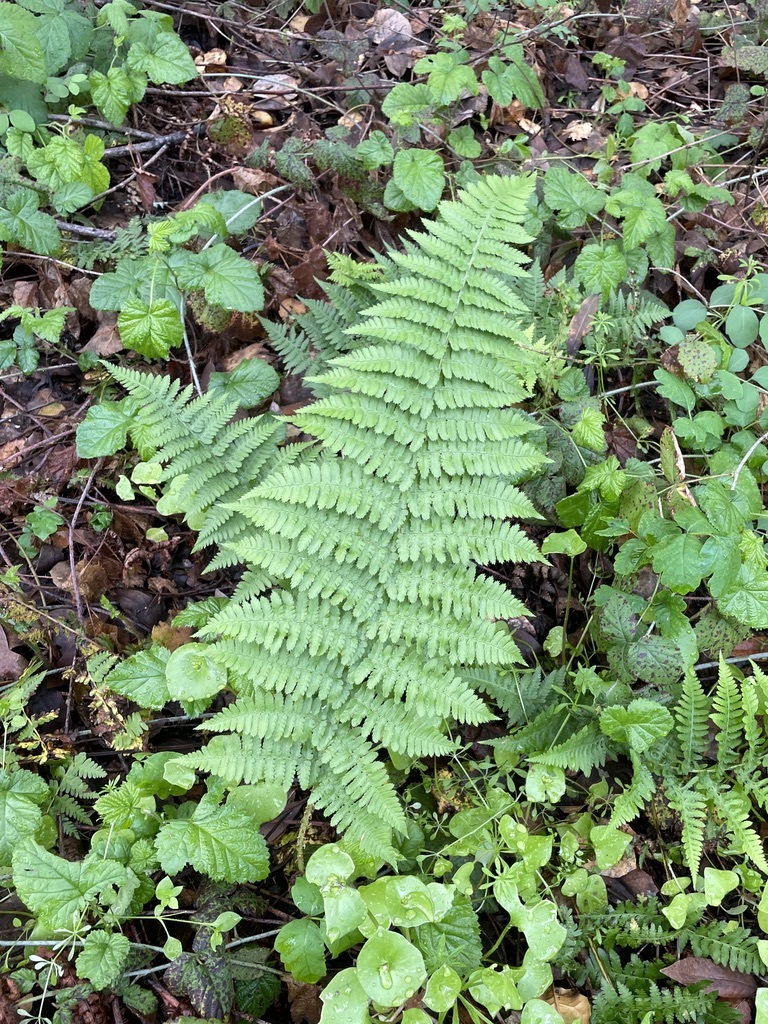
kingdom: Plantae
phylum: Tracheophyta
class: Polypodiopsida
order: Polypodiales
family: Dryopteridaceae
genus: Dryopteris
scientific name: Dryopteris arguta
